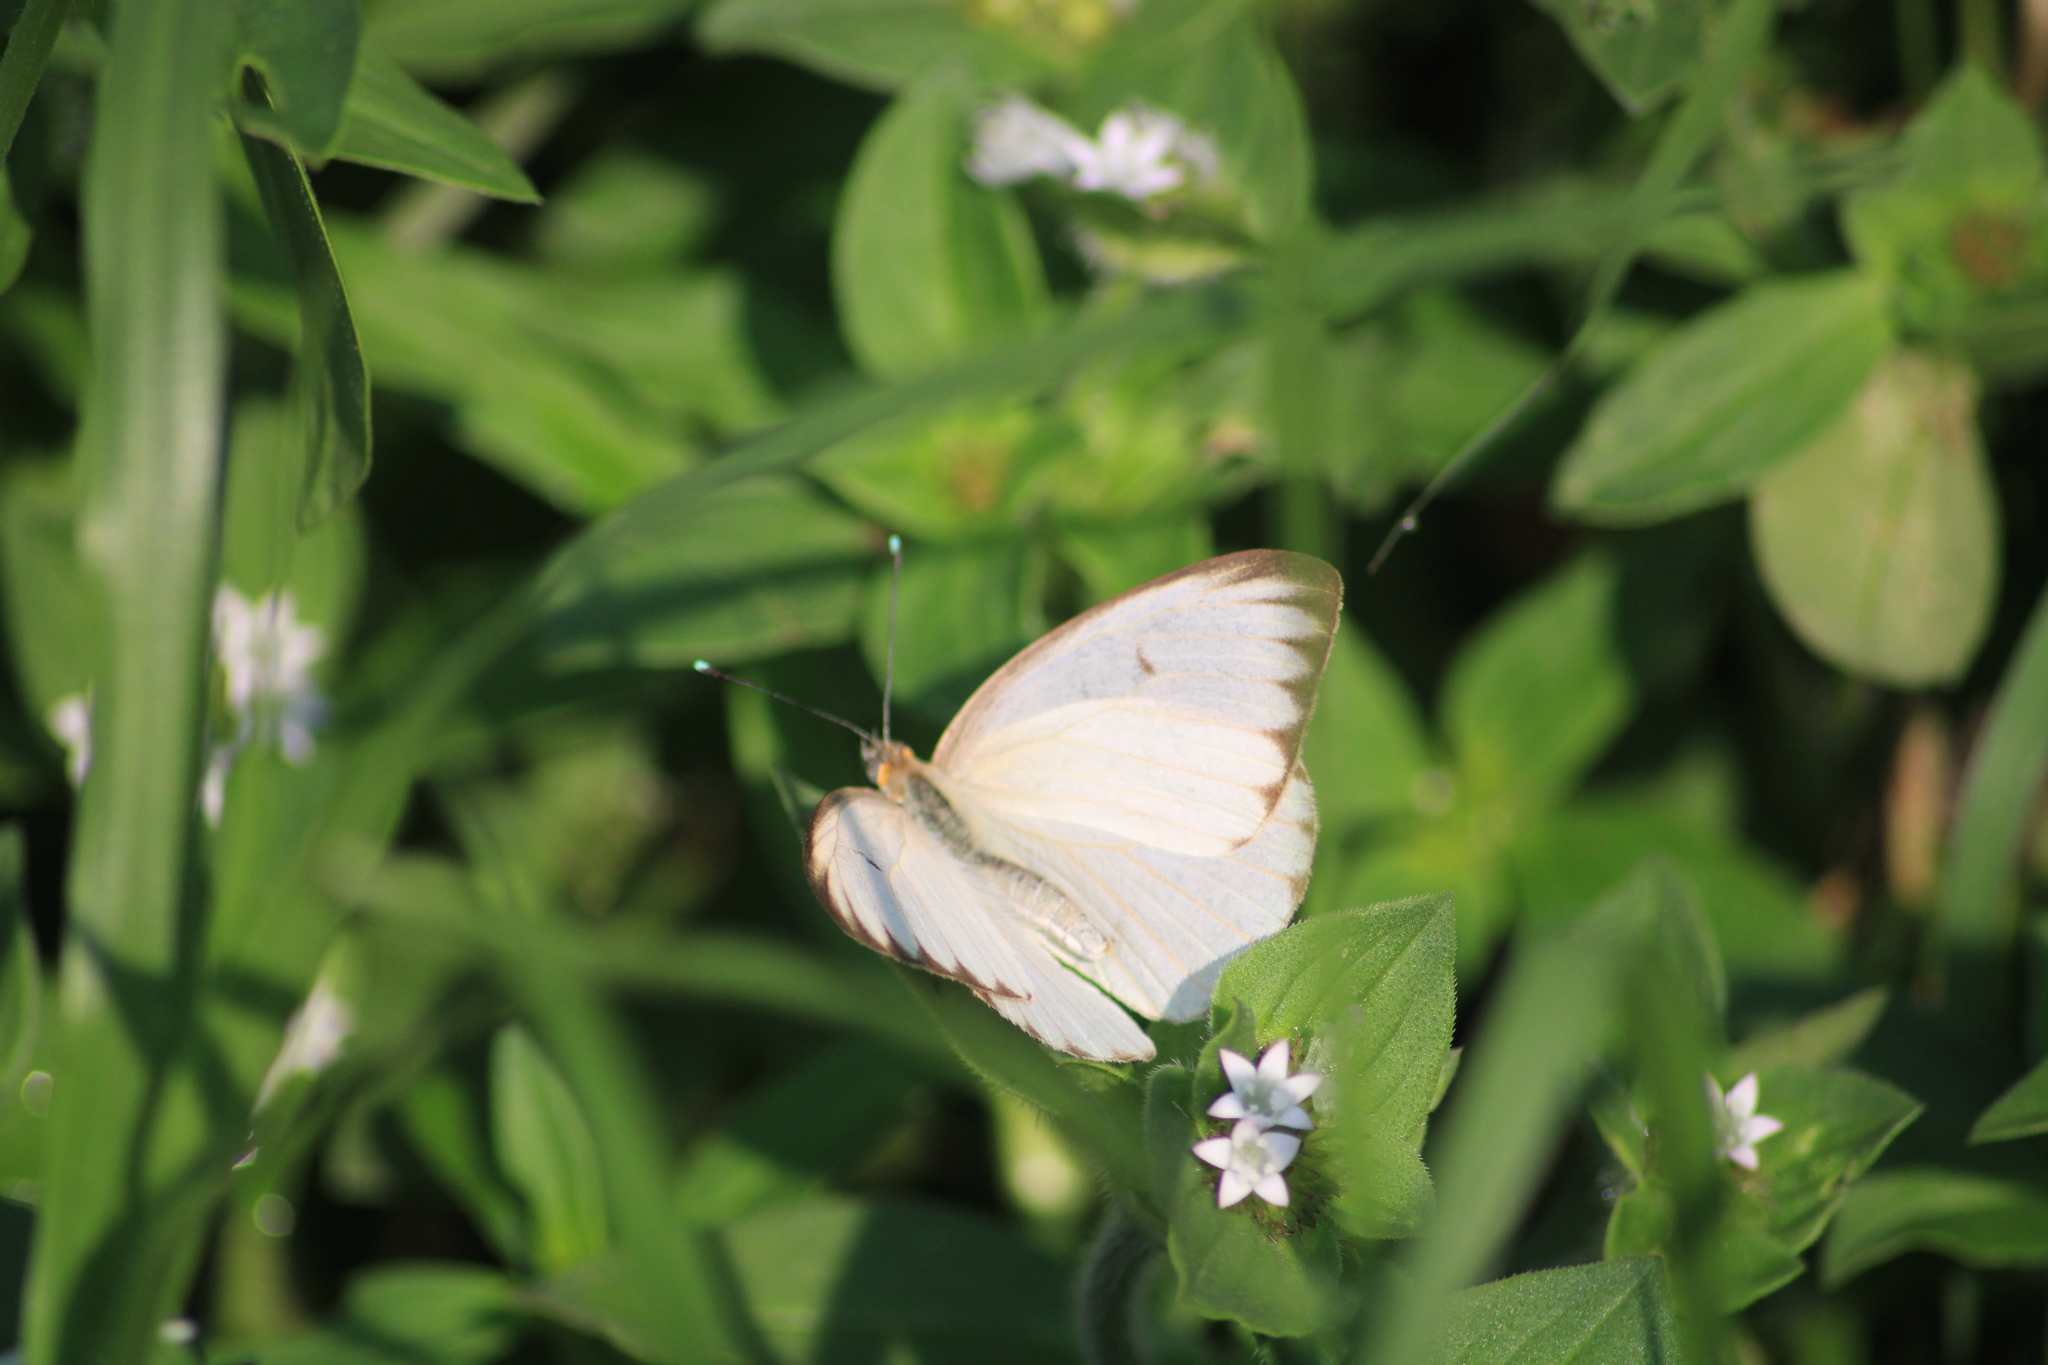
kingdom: Animalia
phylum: Arthropoda
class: Insecta
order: Lepidoptera
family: Pieridae
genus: Ascia
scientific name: Ascia monuste
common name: Great southern white
